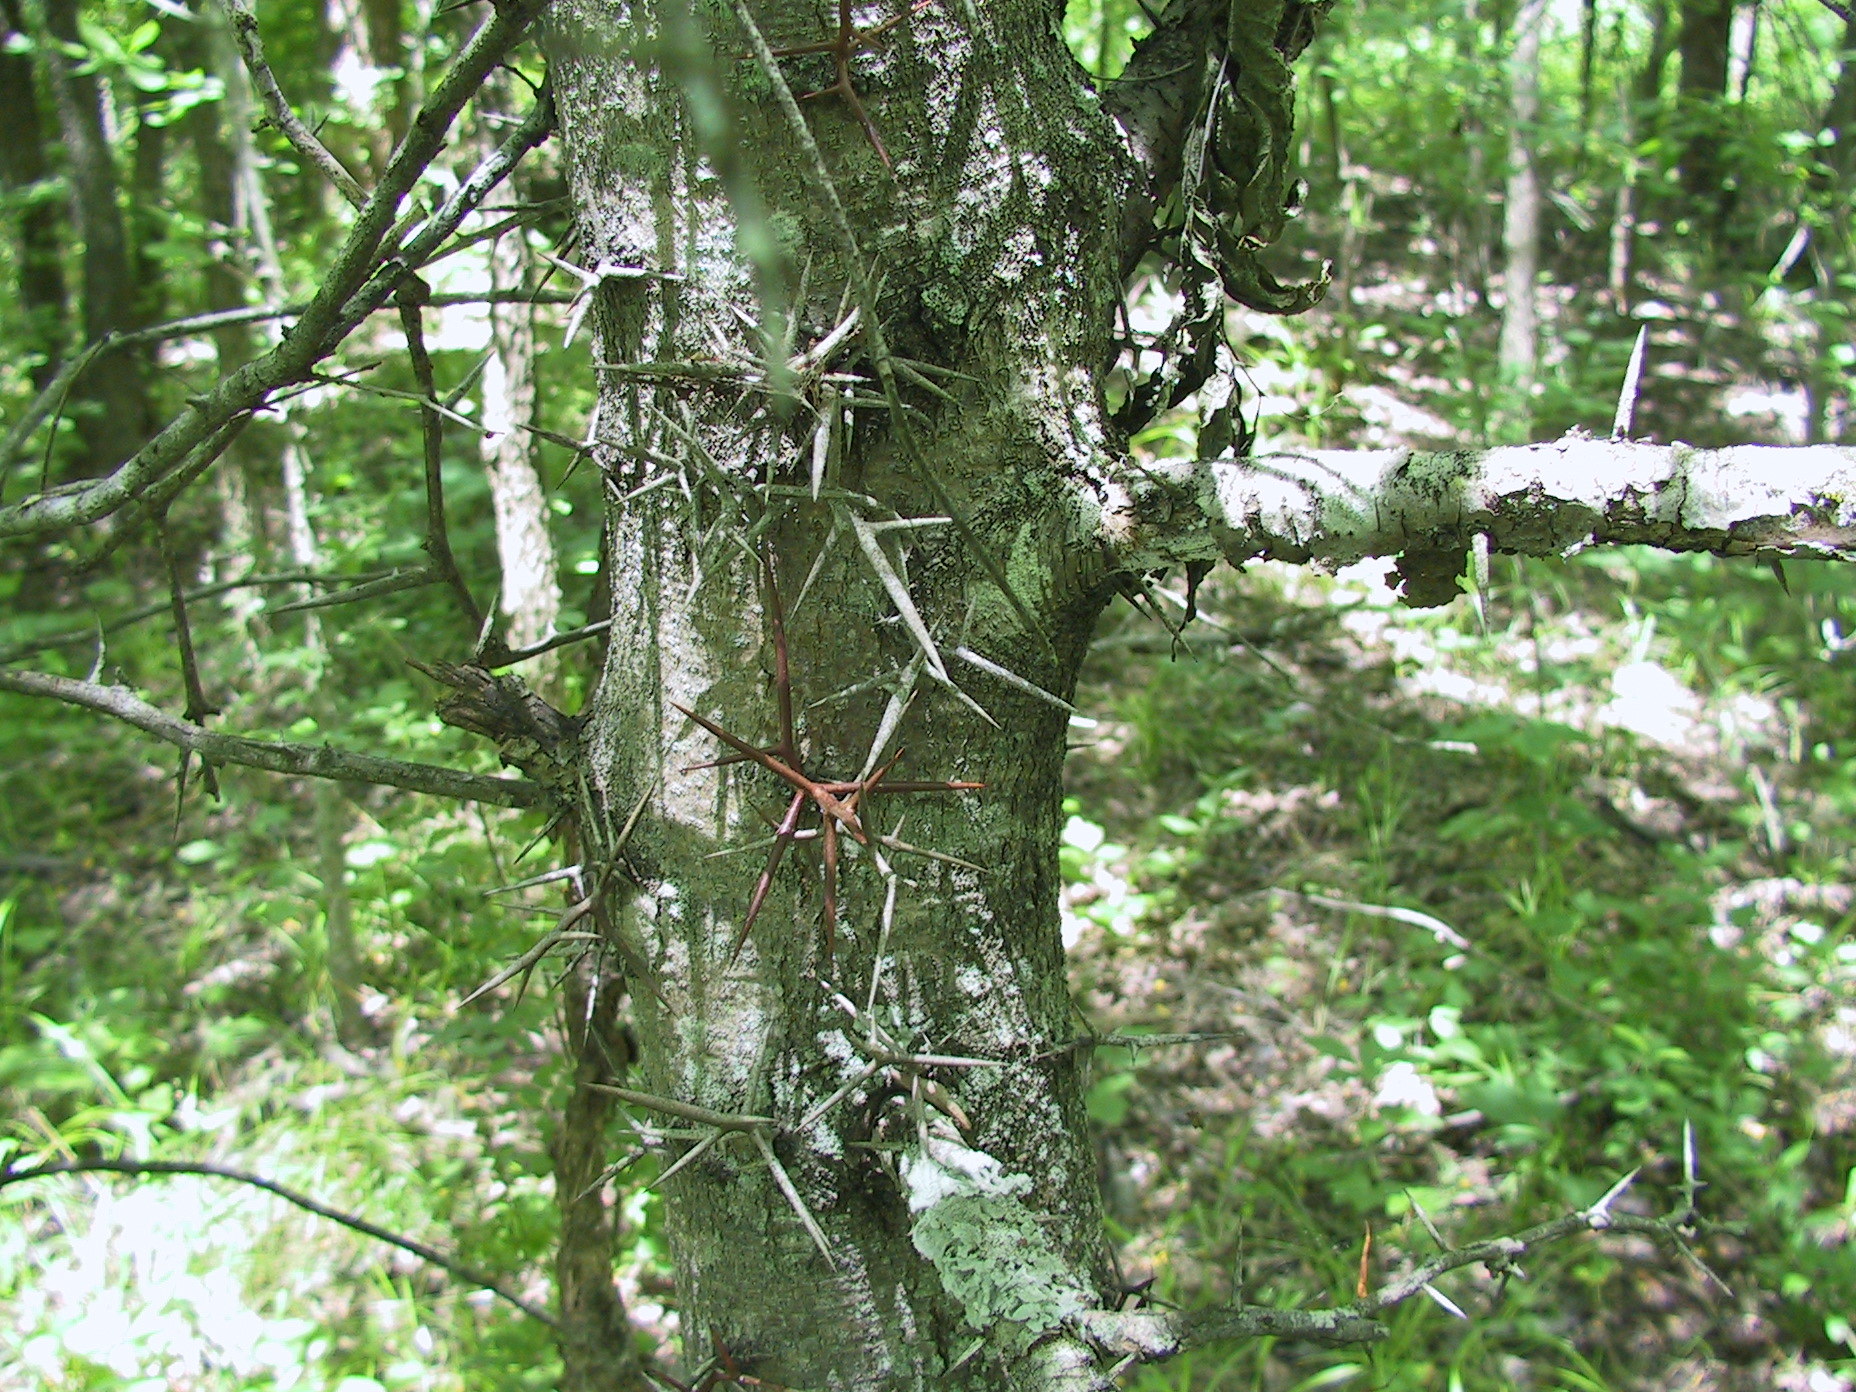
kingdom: Plantae
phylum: Tracheophyta
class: Magnoliopsida
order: Fabales
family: Fabaceae
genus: Gleditsia
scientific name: Gleditsia triacanthos
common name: Common honeylocust
